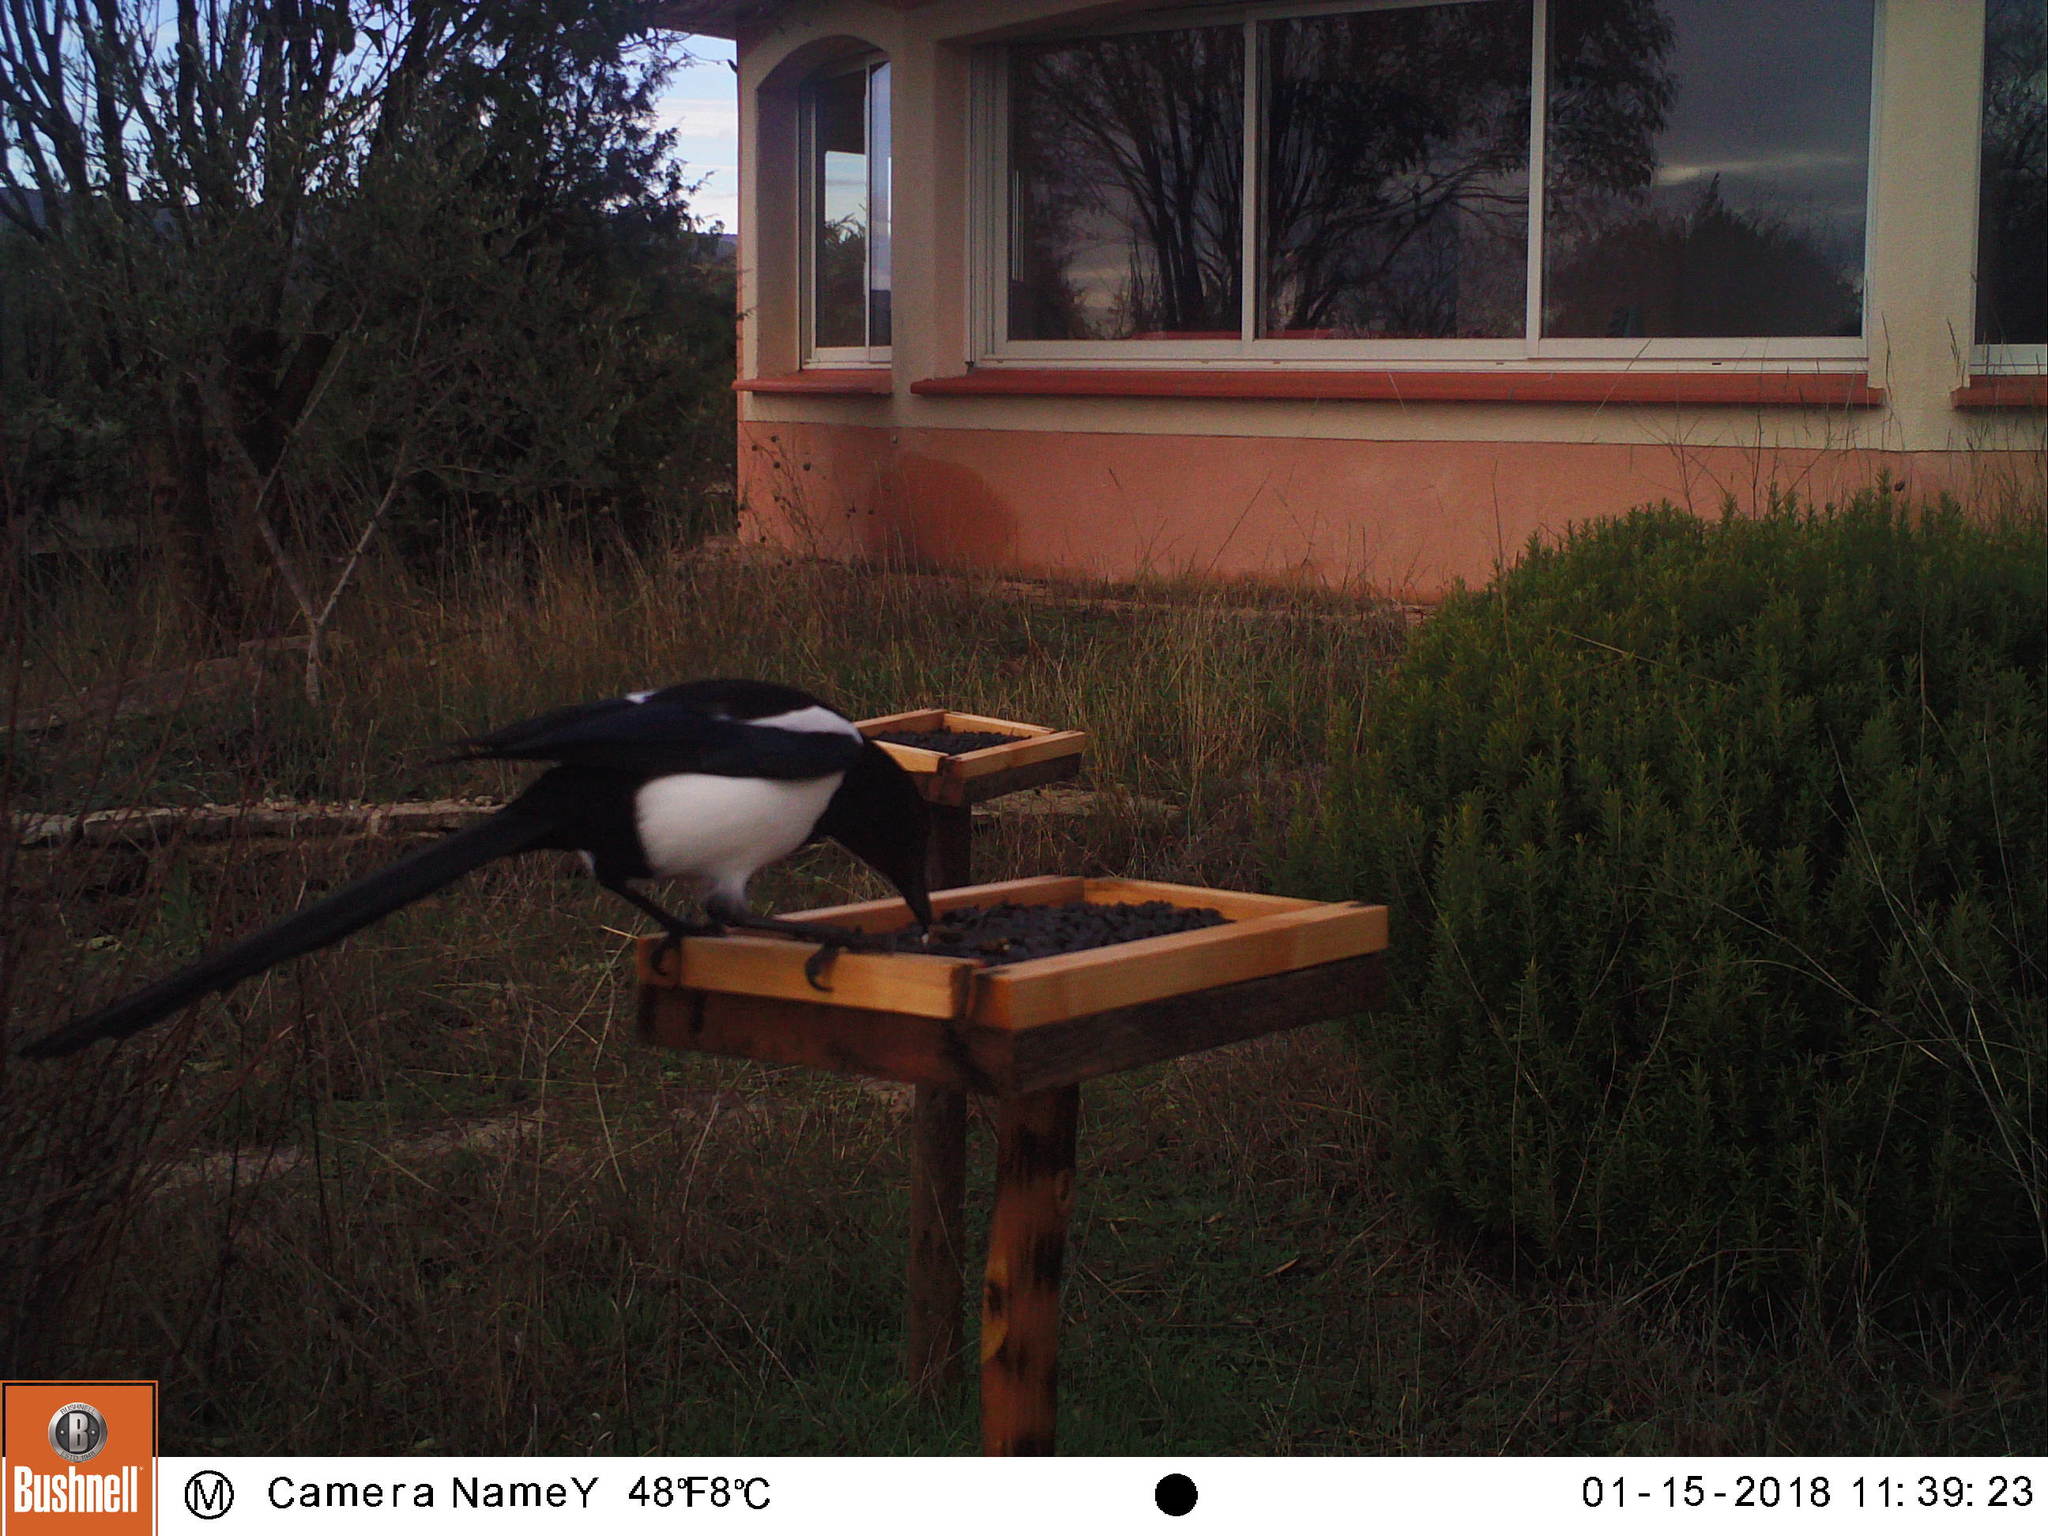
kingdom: Animalia
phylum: Chordata
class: Aves
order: Passeriformes
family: Corvidae
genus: Pica
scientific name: Pica pica
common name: Eurasian magpie
